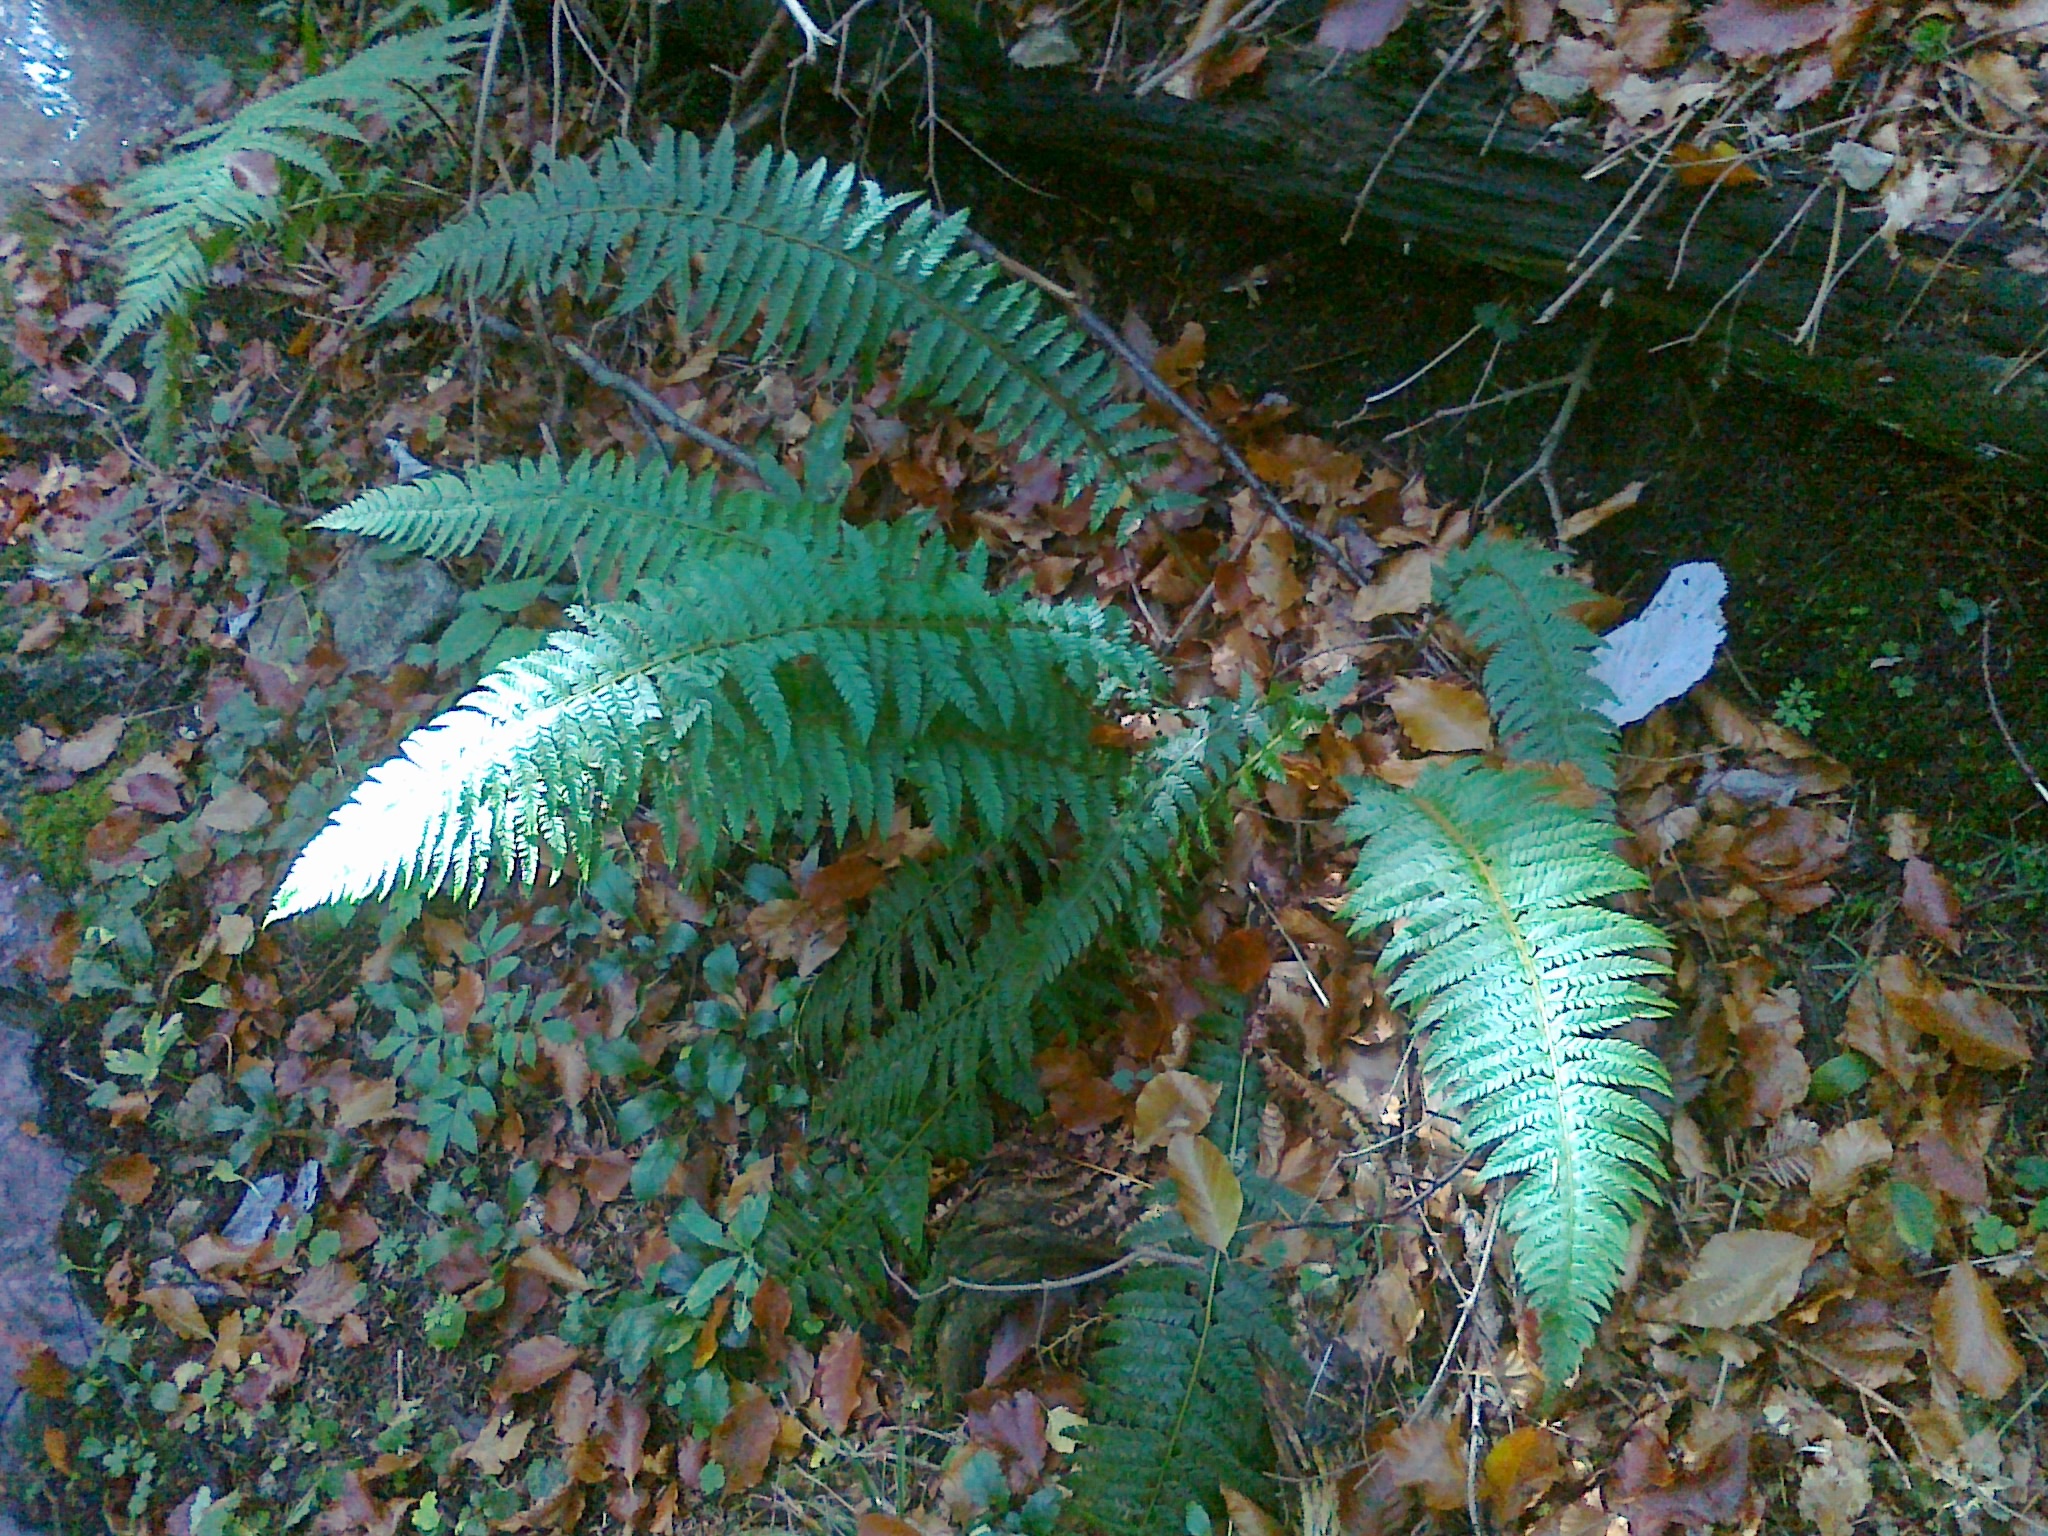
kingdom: Plantae
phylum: Tracheophyta
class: Polypodiopsida
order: Polypodiales
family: Dryopteridaceae
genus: Polystichum
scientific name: Polystichum aculeatum
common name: Hard shield-fern
